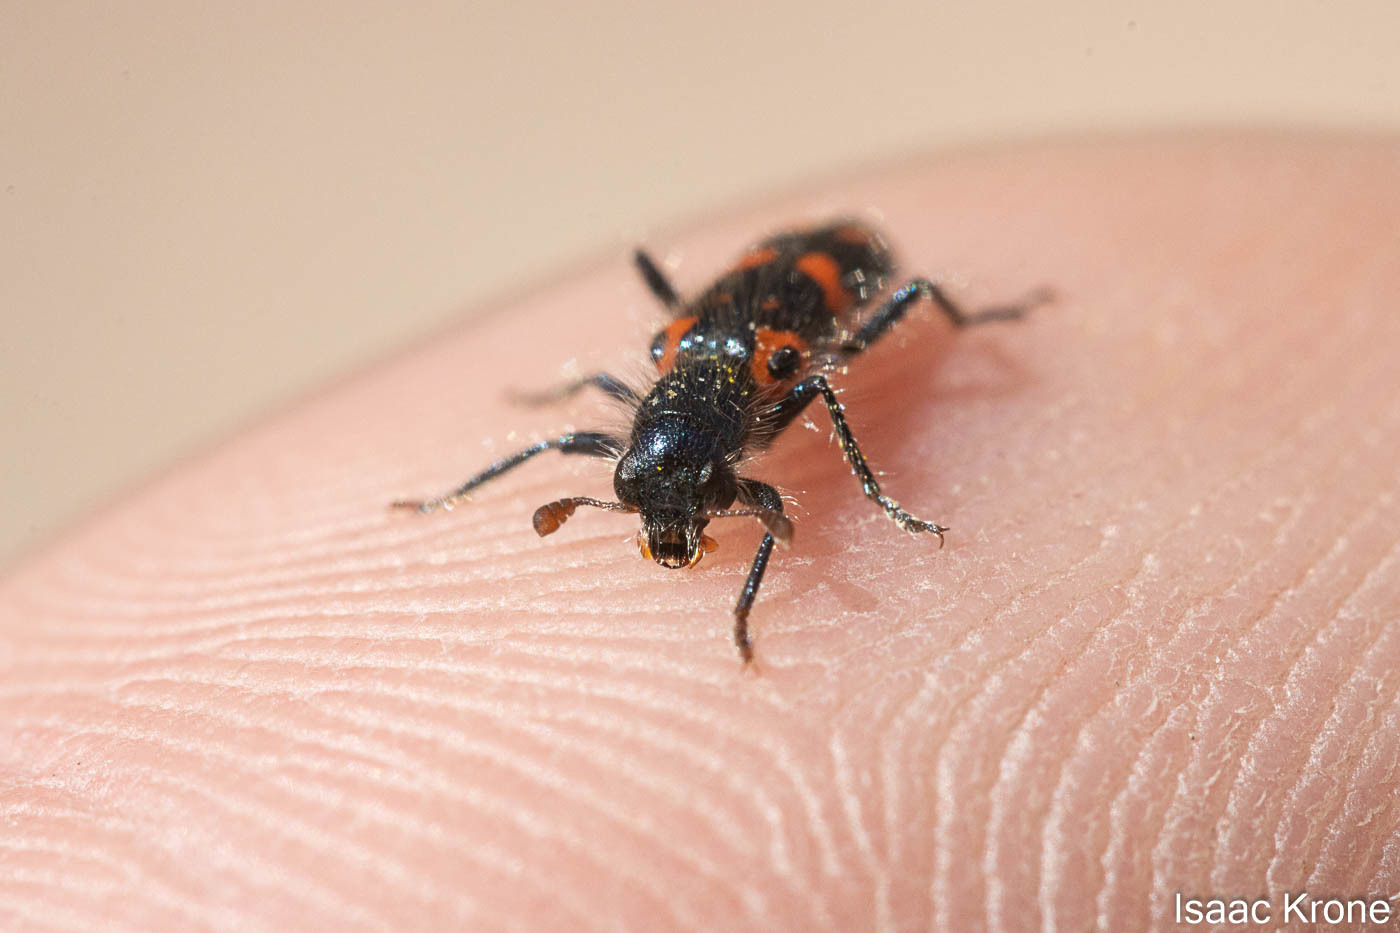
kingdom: Animalia
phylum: Arthropoda
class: Insecta
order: Coleoptera
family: Cleridae
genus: Trichodes
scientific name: Trichodes ornatus
